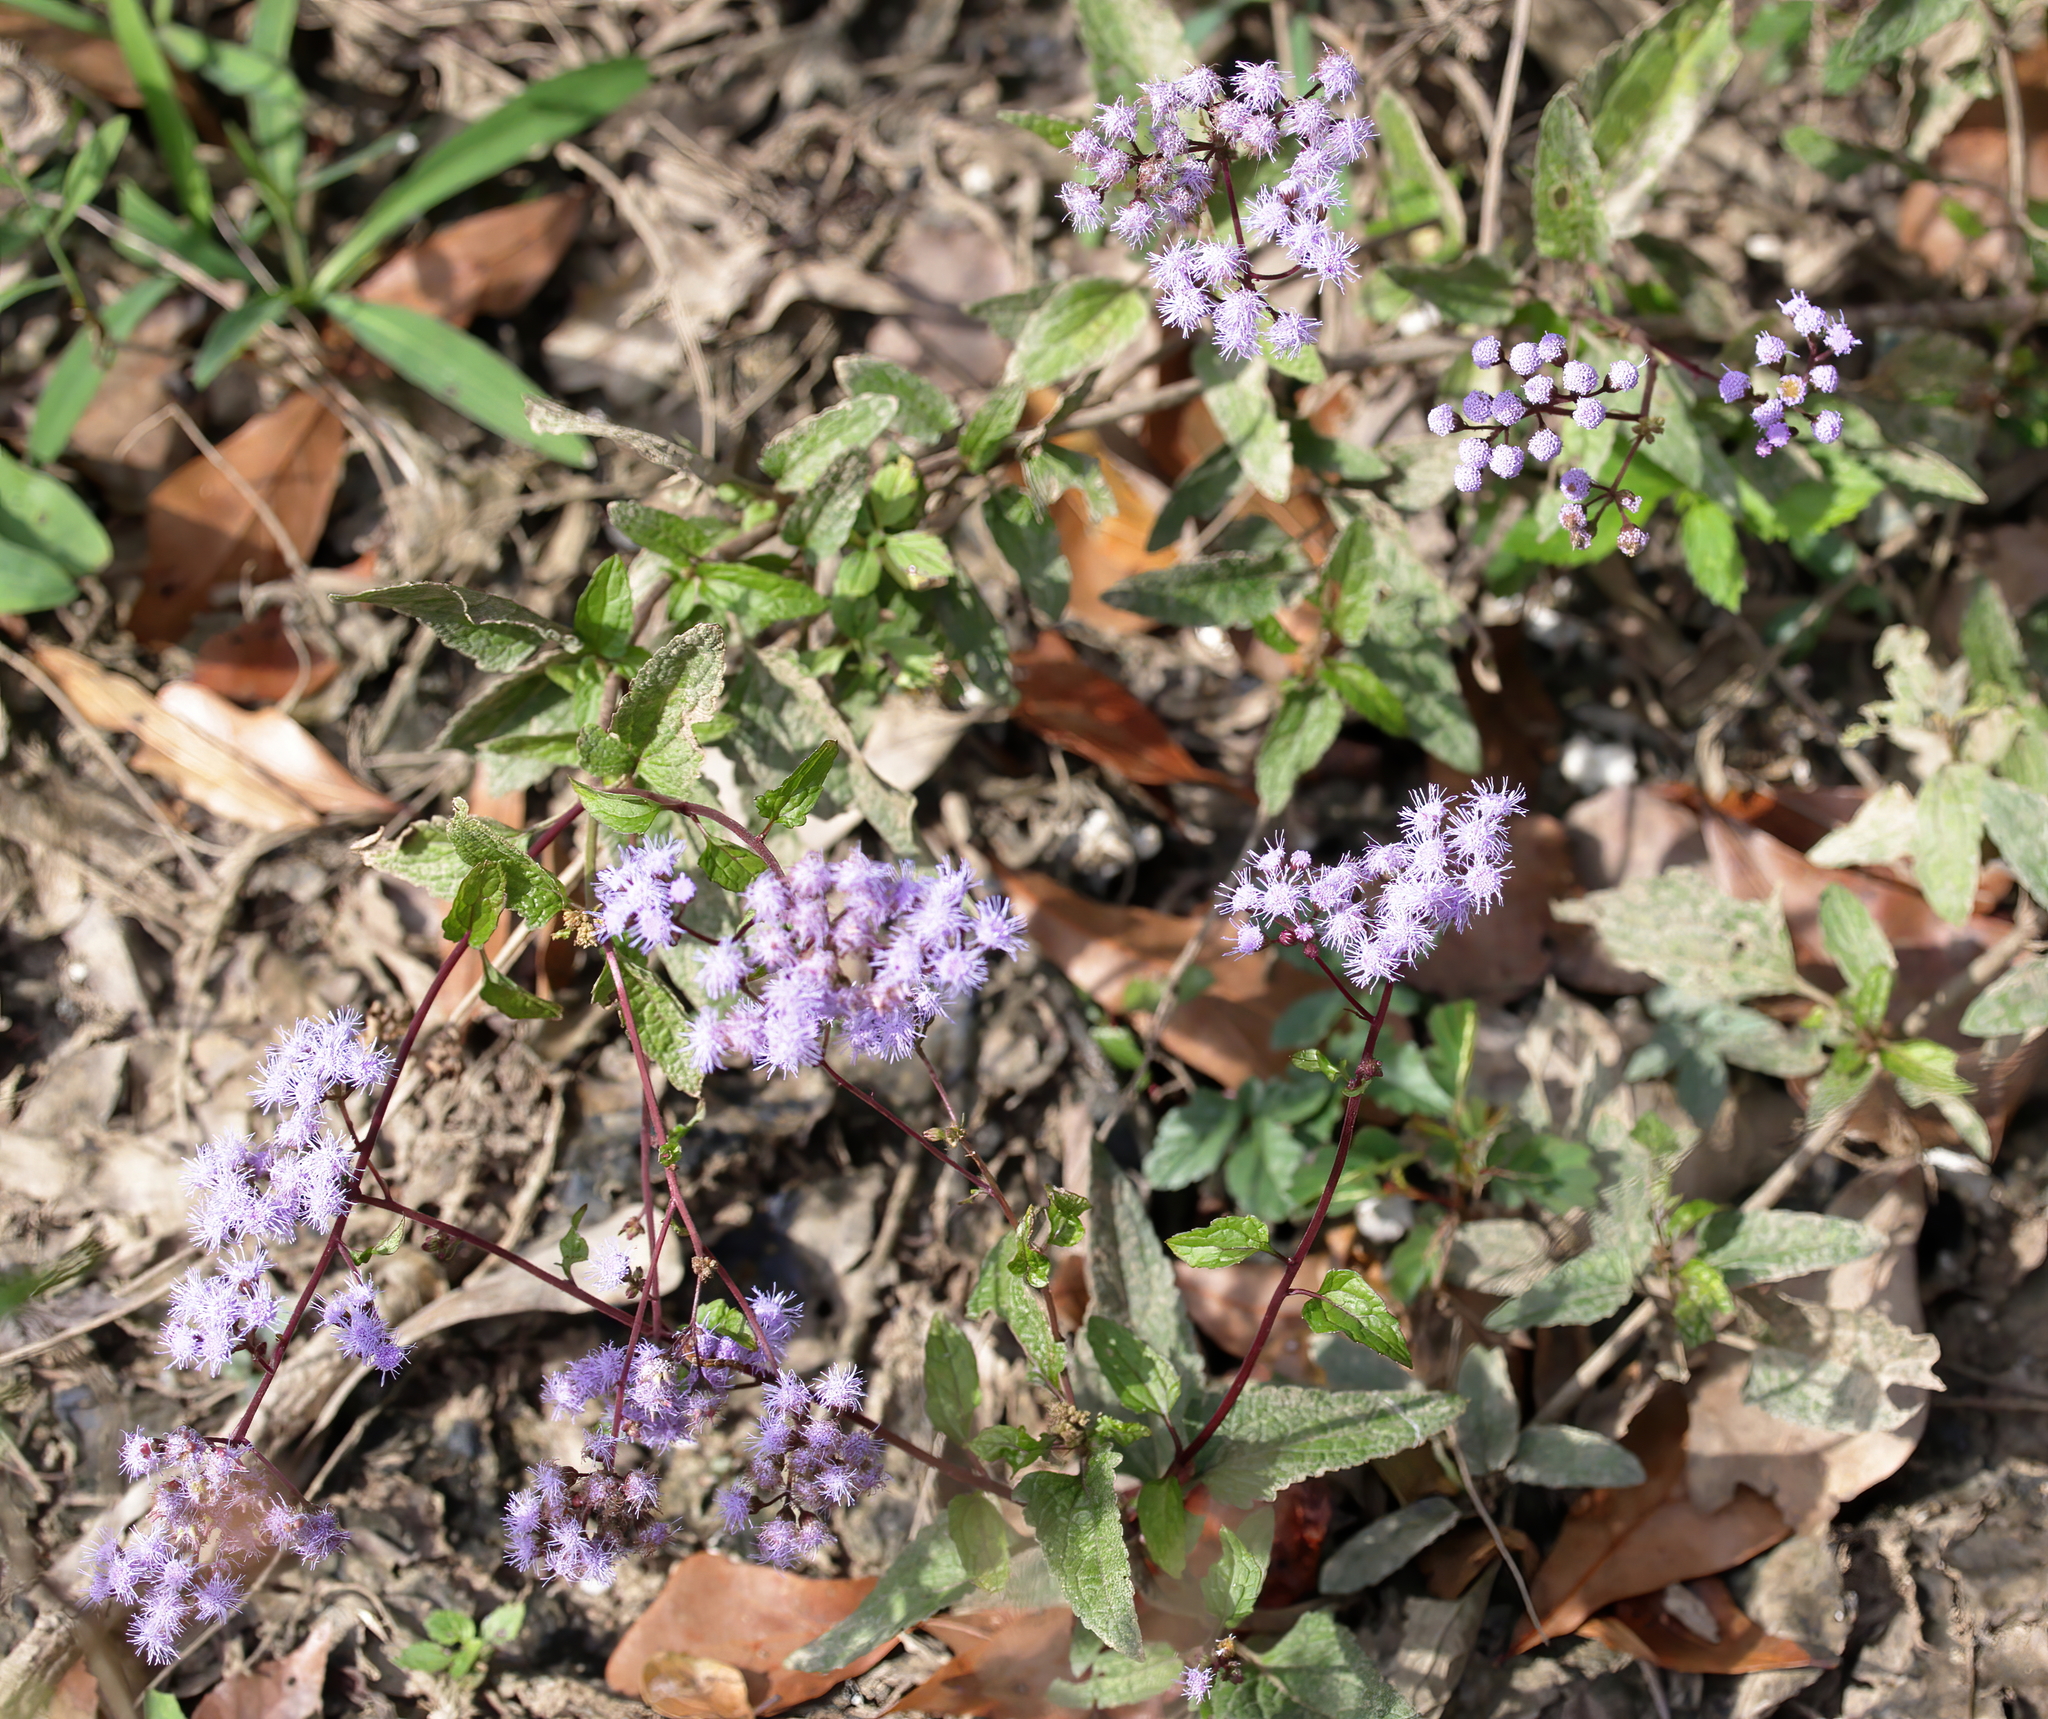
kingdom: Plantae
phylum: Tracheophyta
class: Magnoliopsida
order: Asterales
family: Asteraceae
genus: Conoclinium
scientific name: Conoclinium coelestinum
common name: Blue mistflower
